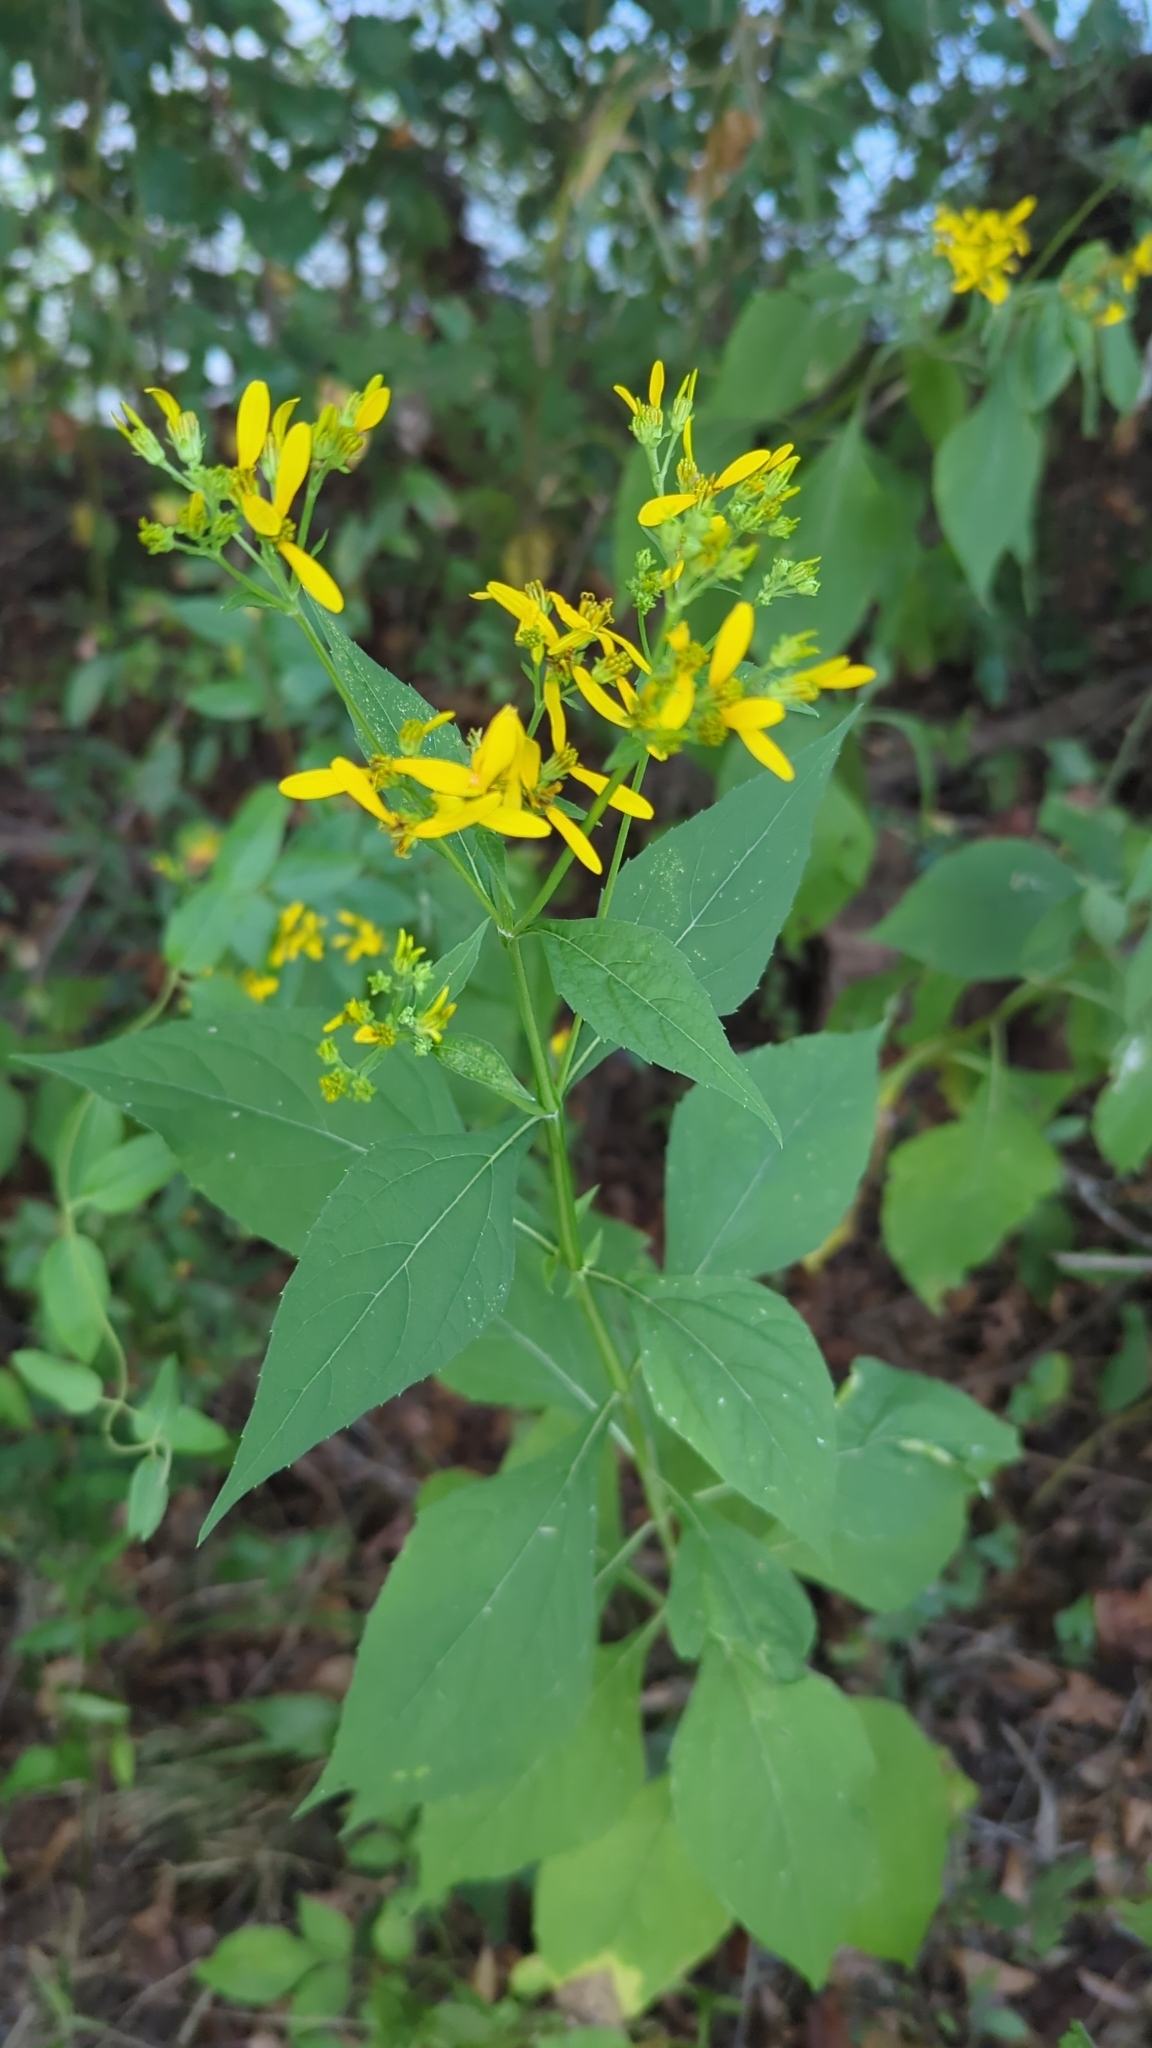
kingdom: Plantae
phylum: Tracheophyta
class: Magnoliopsida
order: Asterales
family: Asteraceae
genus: Verbesina
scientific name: Verbesina occidentalis
